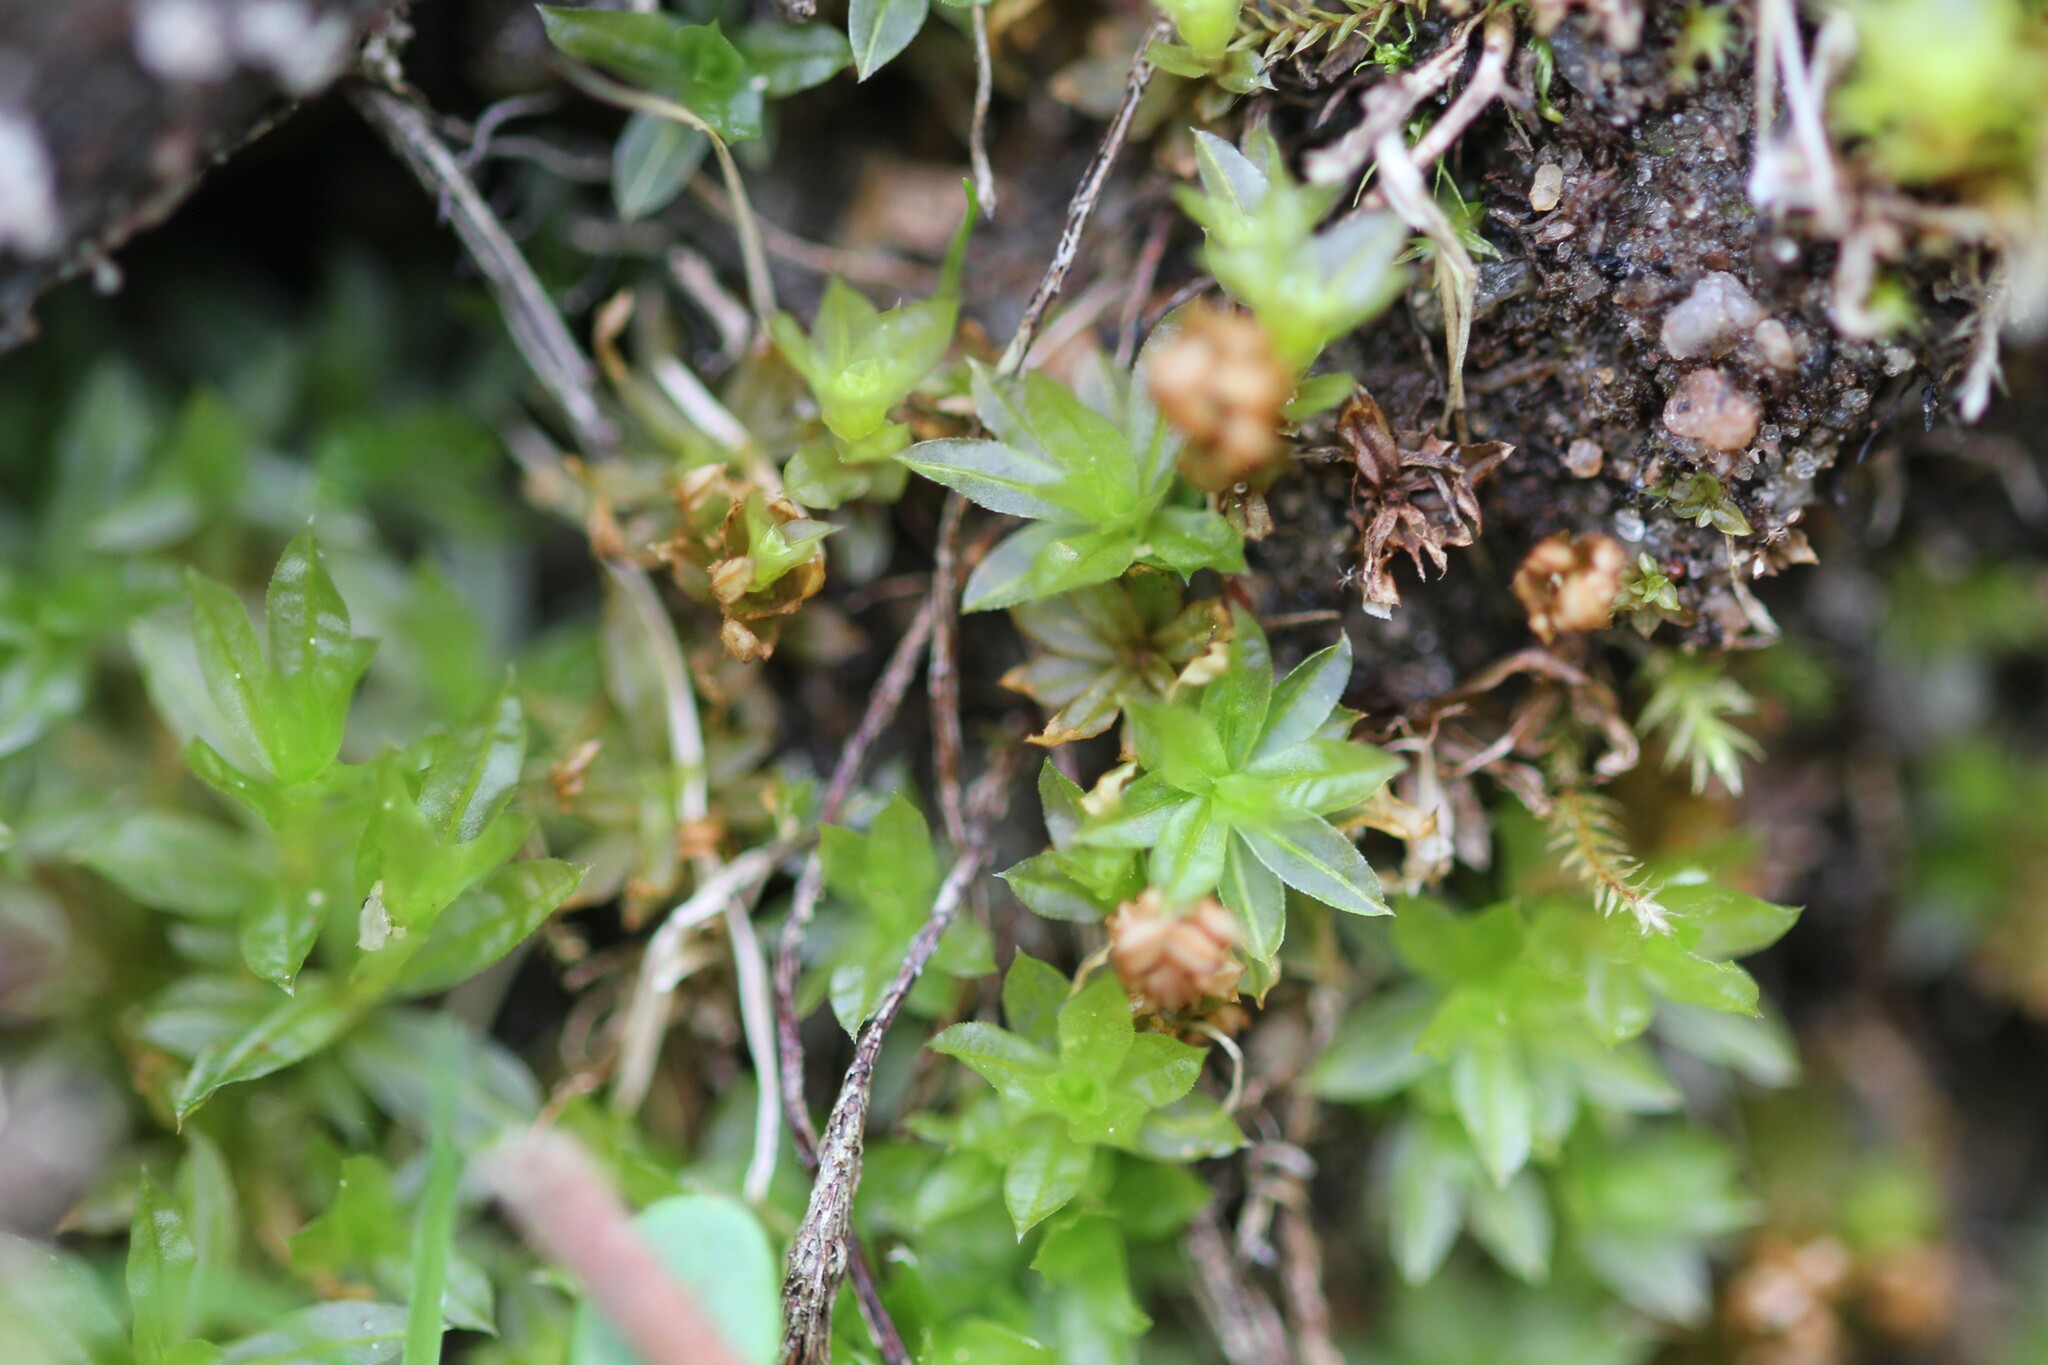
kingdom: Plantae
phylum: Bryophyta
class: Polytrichopsida
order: Polytrichales
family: Polytrichaceae
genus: Atrichum
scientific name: Atrichum crispum
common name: Fountain smoothcap
